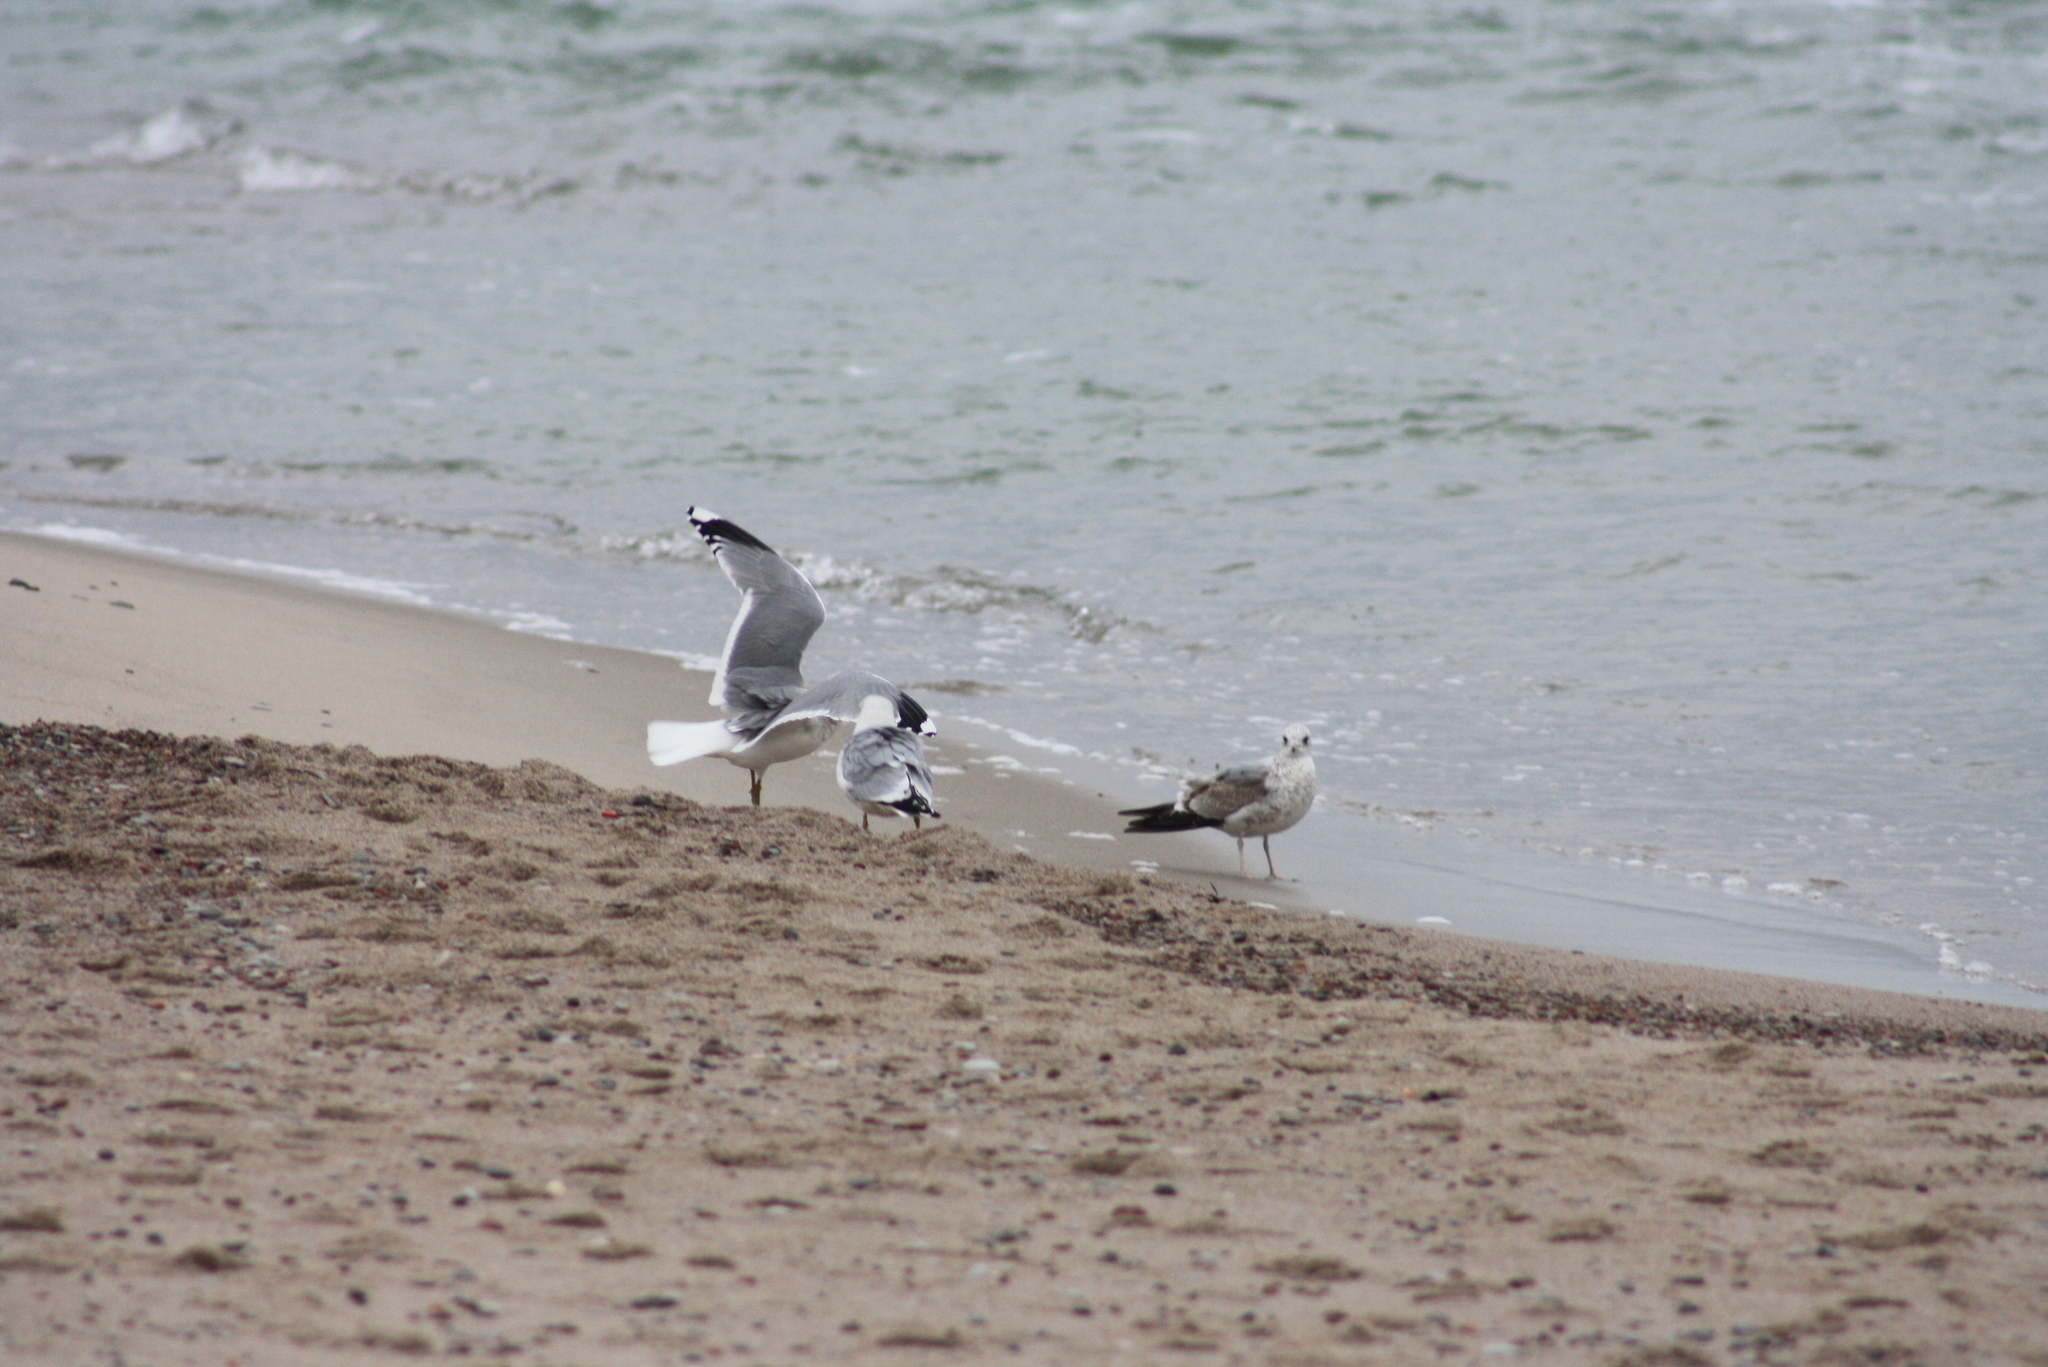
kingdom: Animalia
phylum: Chordata
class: Aves
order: Charadriiformes
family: Laridae
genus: Larus
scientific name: Larus canus
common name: Mew gull
